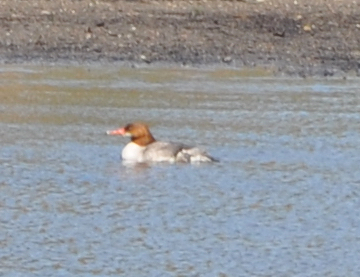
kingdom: Animalia
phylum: Chordata
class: Aves
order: Anseriformes
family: Anatidae
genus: Mergus
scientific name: Mergus merganser
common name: Common merganser
